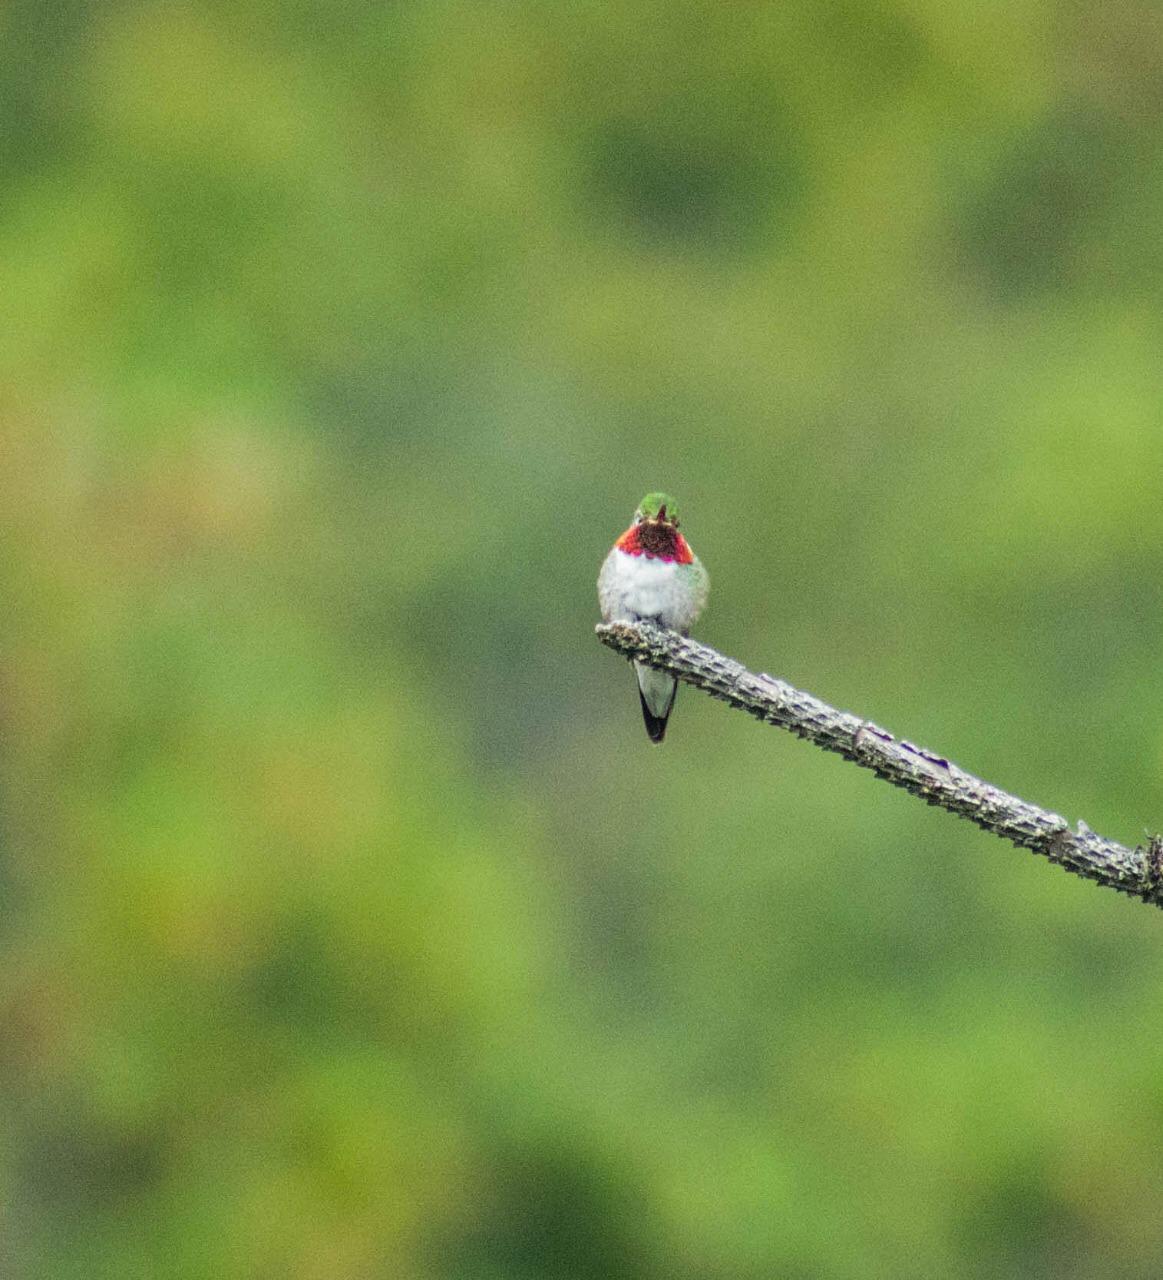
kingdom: Animalia
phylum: Chordata
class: Aves
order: Apodiformes
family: Trochilidae
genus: Selasphorus
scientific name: Selasphorus platycercus
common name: Broad-tailed hummingbird
